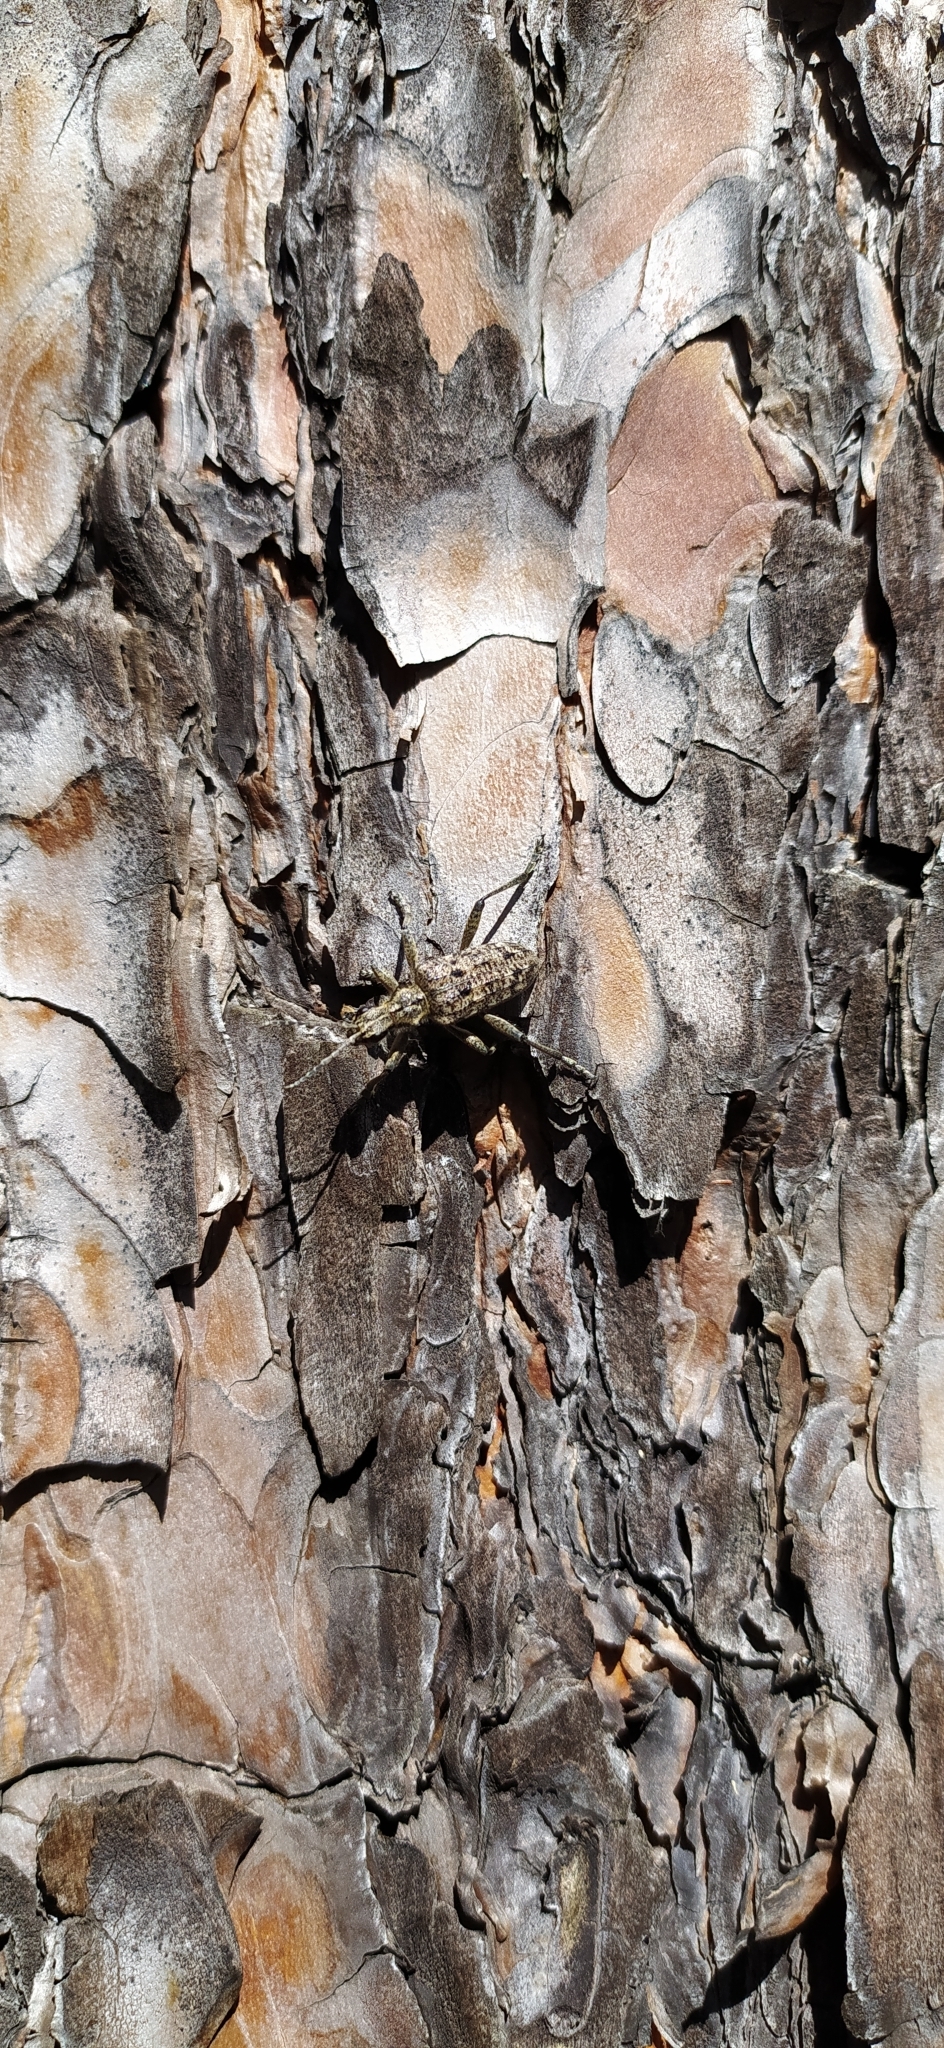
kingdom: Animalia
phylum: Arthropoda
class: Insecta
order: Coleoptera
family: Cerambycidae
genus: Rhagium
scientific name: Rhagium inquisitor
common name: Ribbed pine borer
